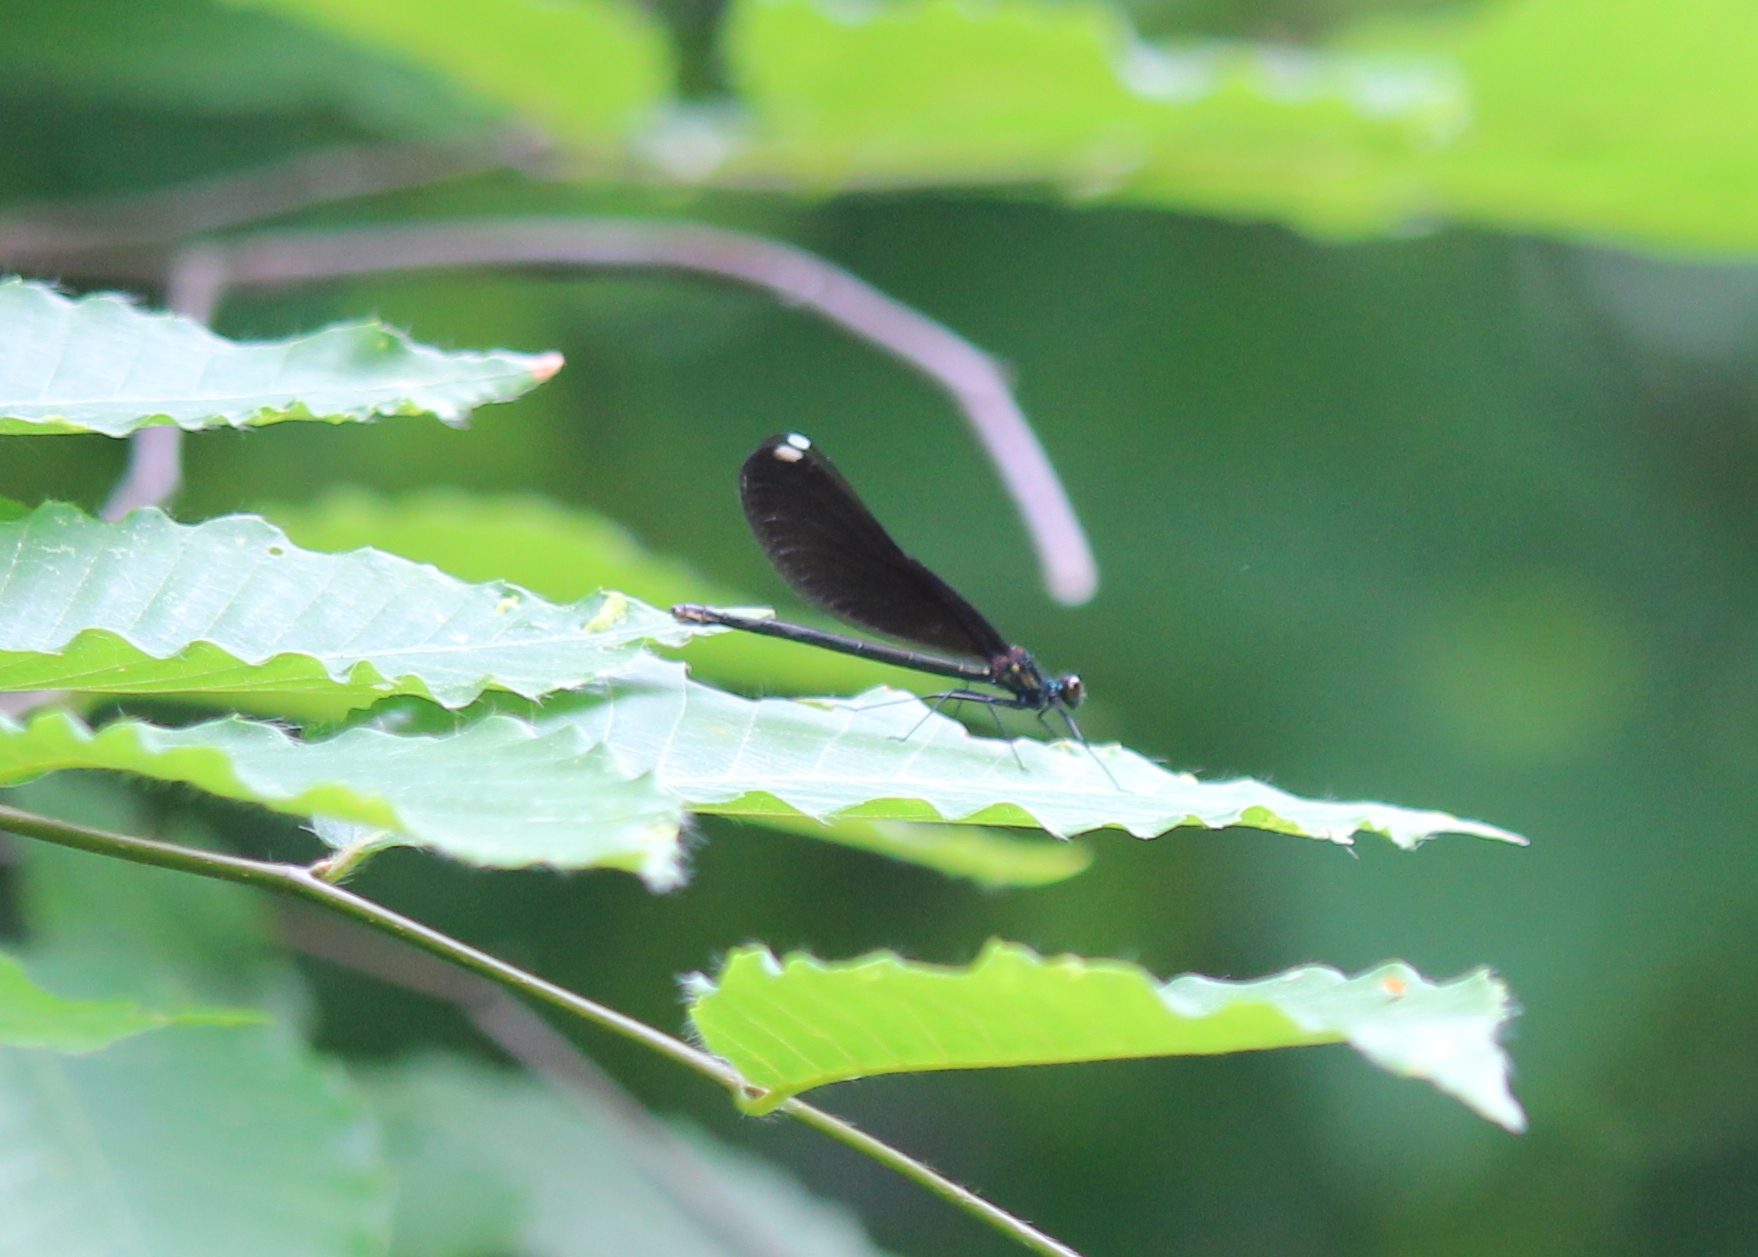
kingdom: Animalia
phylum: Arthropoda
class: Insecta
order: Odonata
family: Calopterygidae
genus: Calopteryx
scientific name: Calopteryx maculata
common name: Ebony jewelwing
